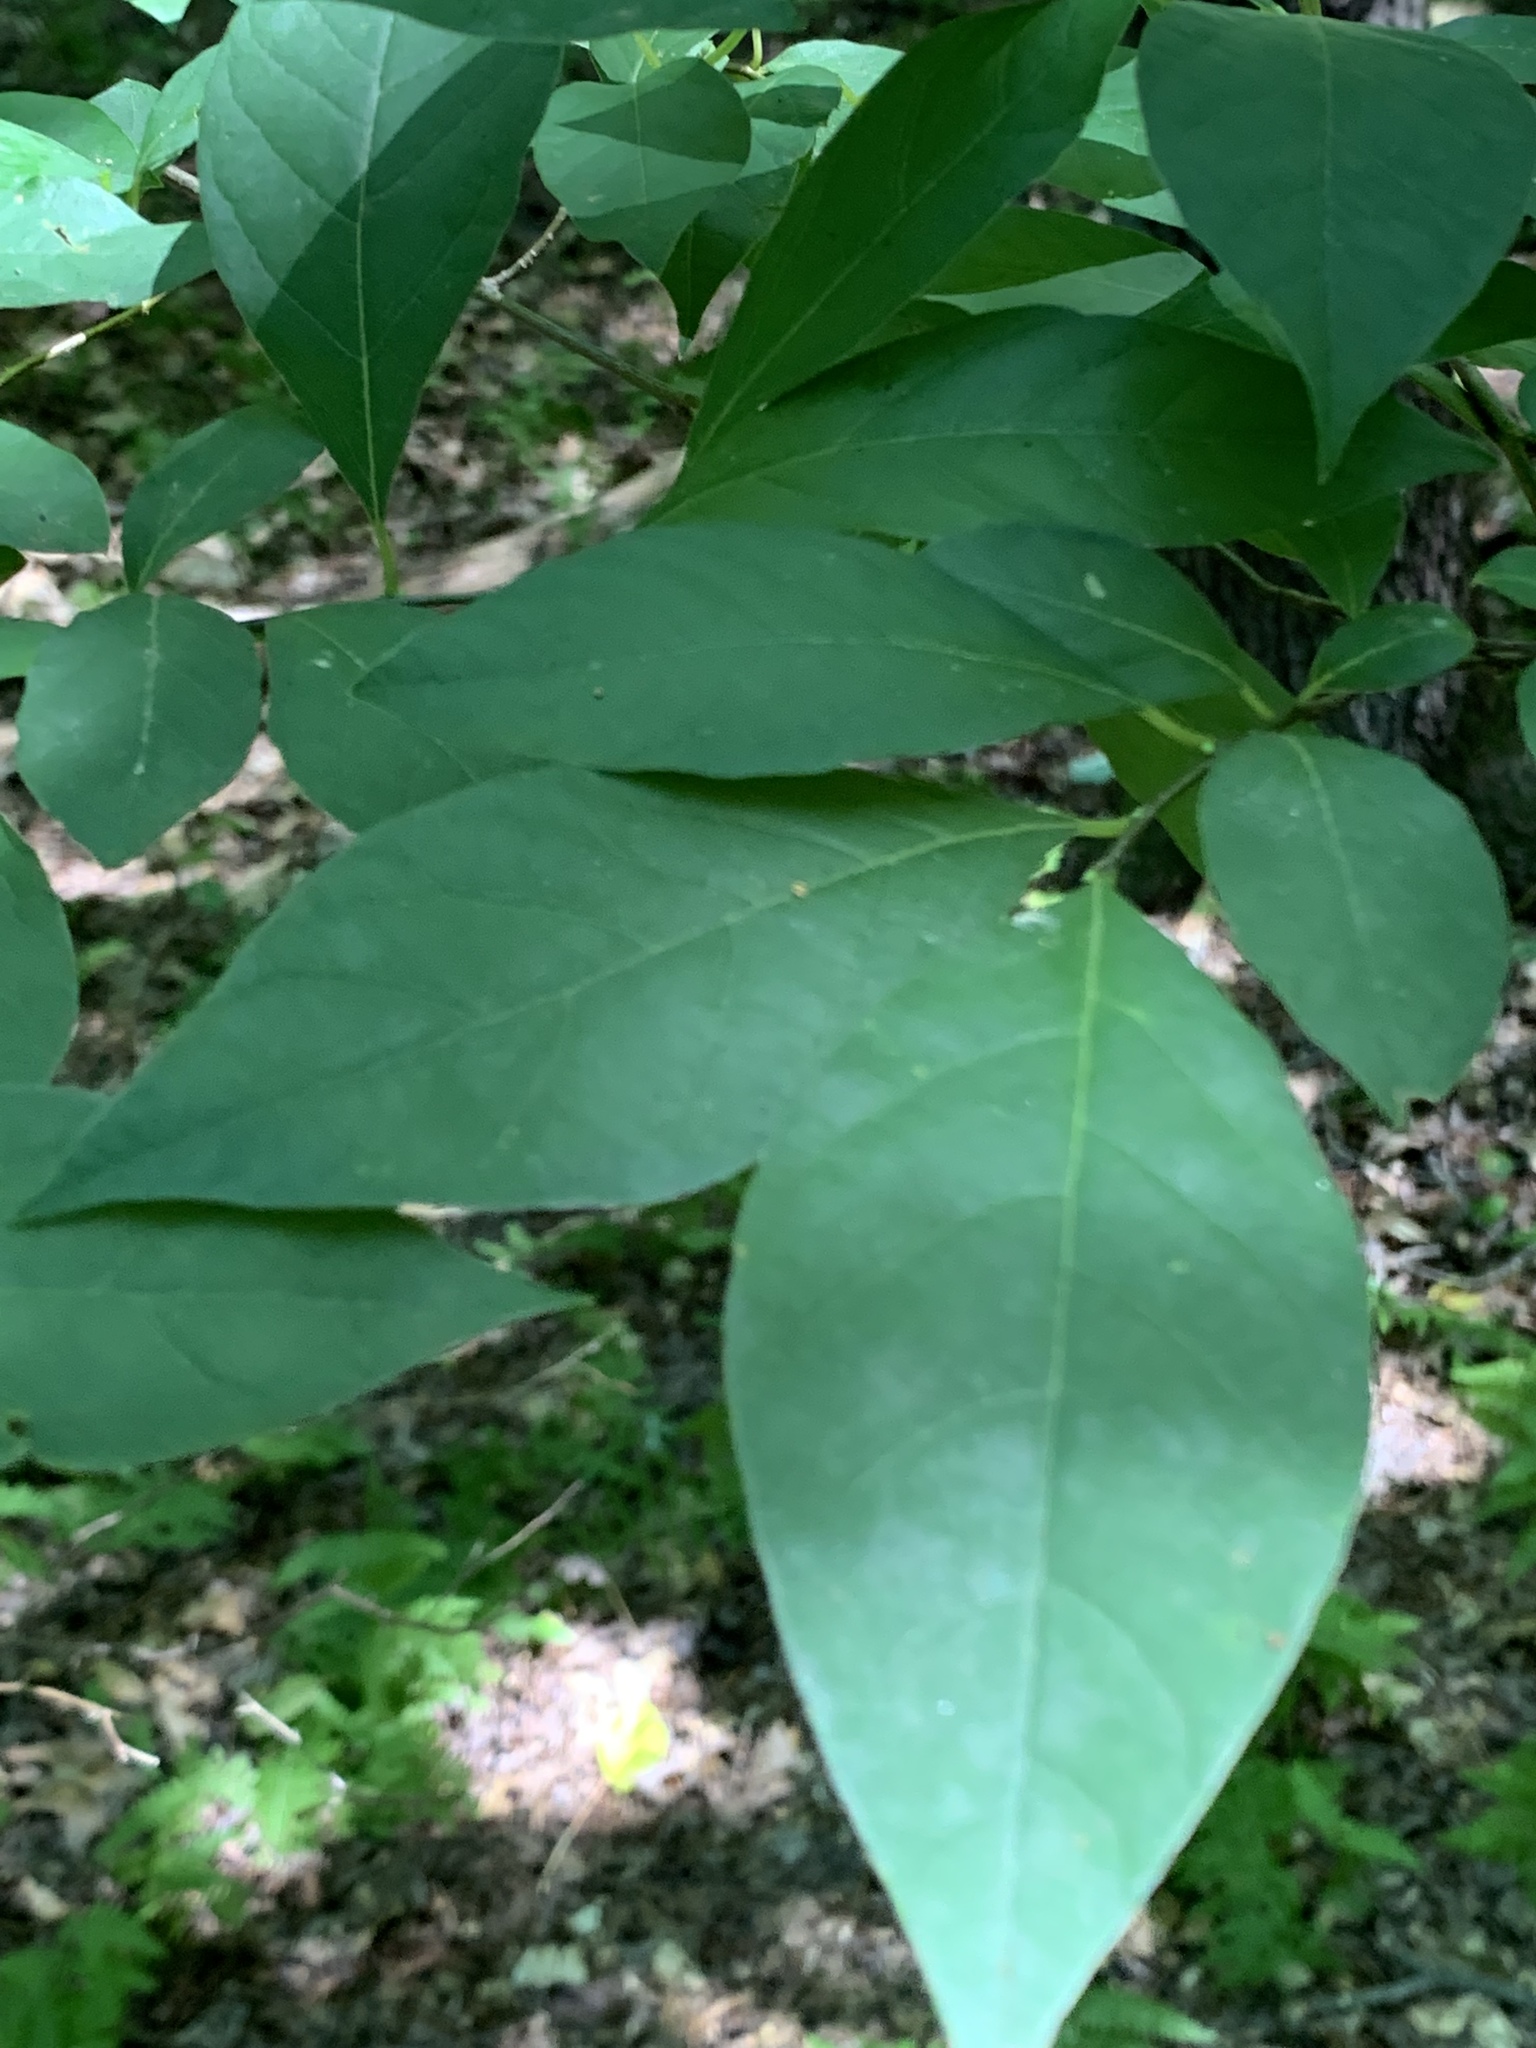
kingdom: Plantae
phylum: Tracheophyta
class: Magnoliopsida
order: Laurales
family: Lauraceae
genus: Lindera
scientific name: Lindera benzoin
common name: Spicebush
